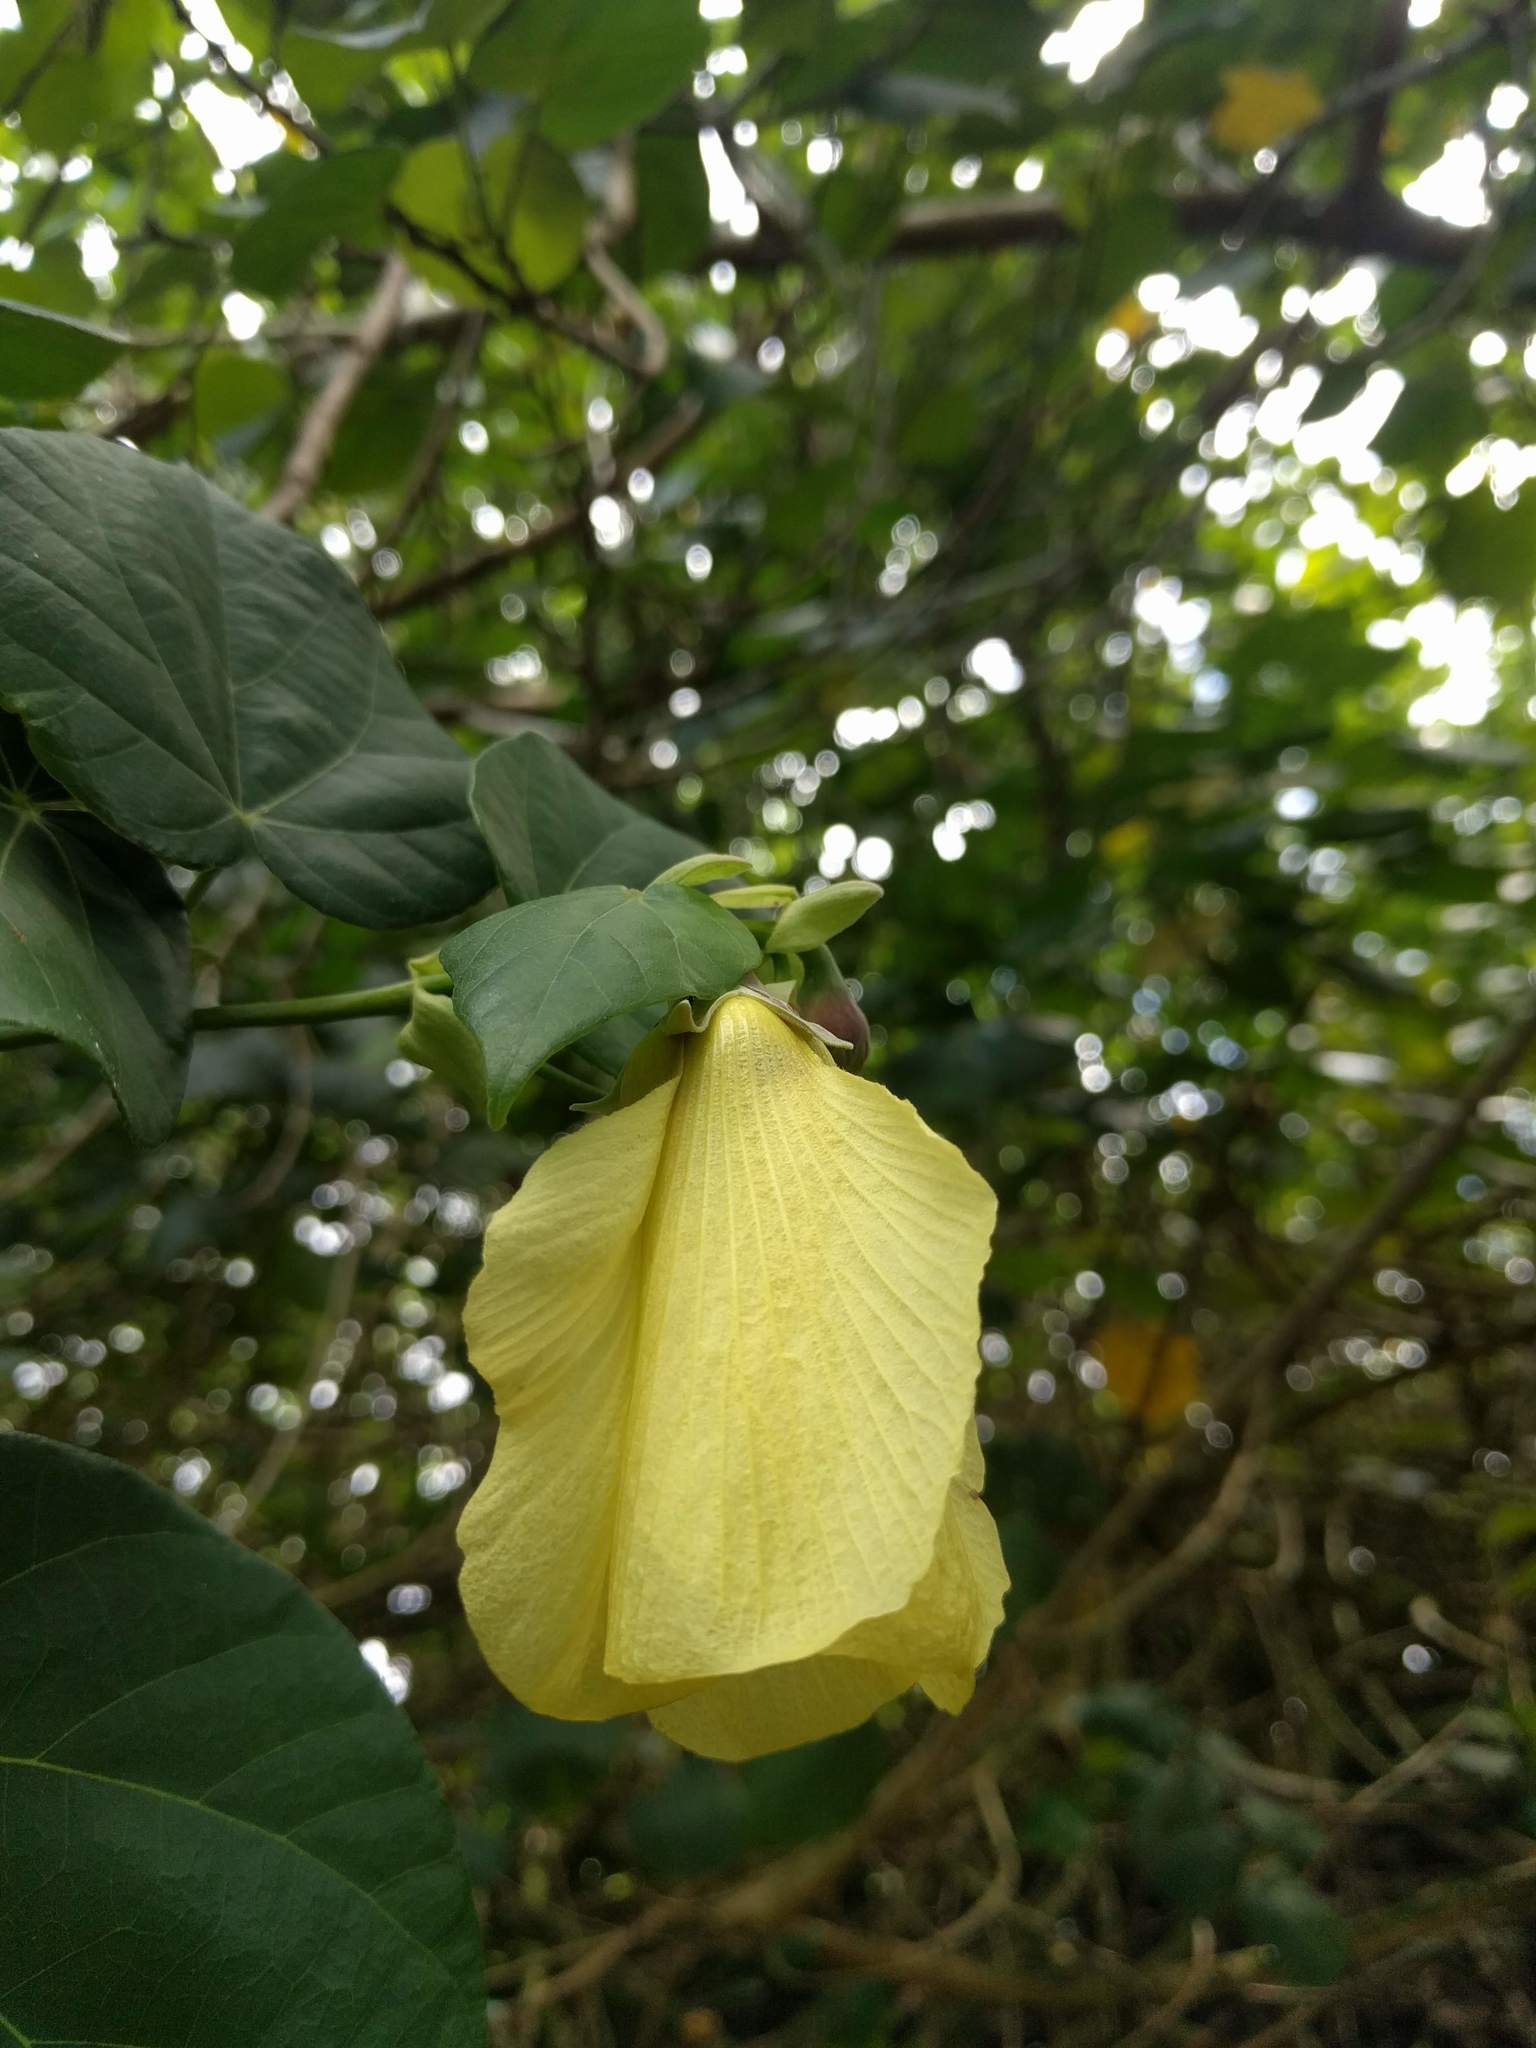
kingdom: Plantae
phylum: Tracheophyta
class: Magnoliopsida
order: Malvales
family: Malvaceae
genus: Talipariti
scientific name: Talipariti tiliaceum
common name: Sea hibiscus
